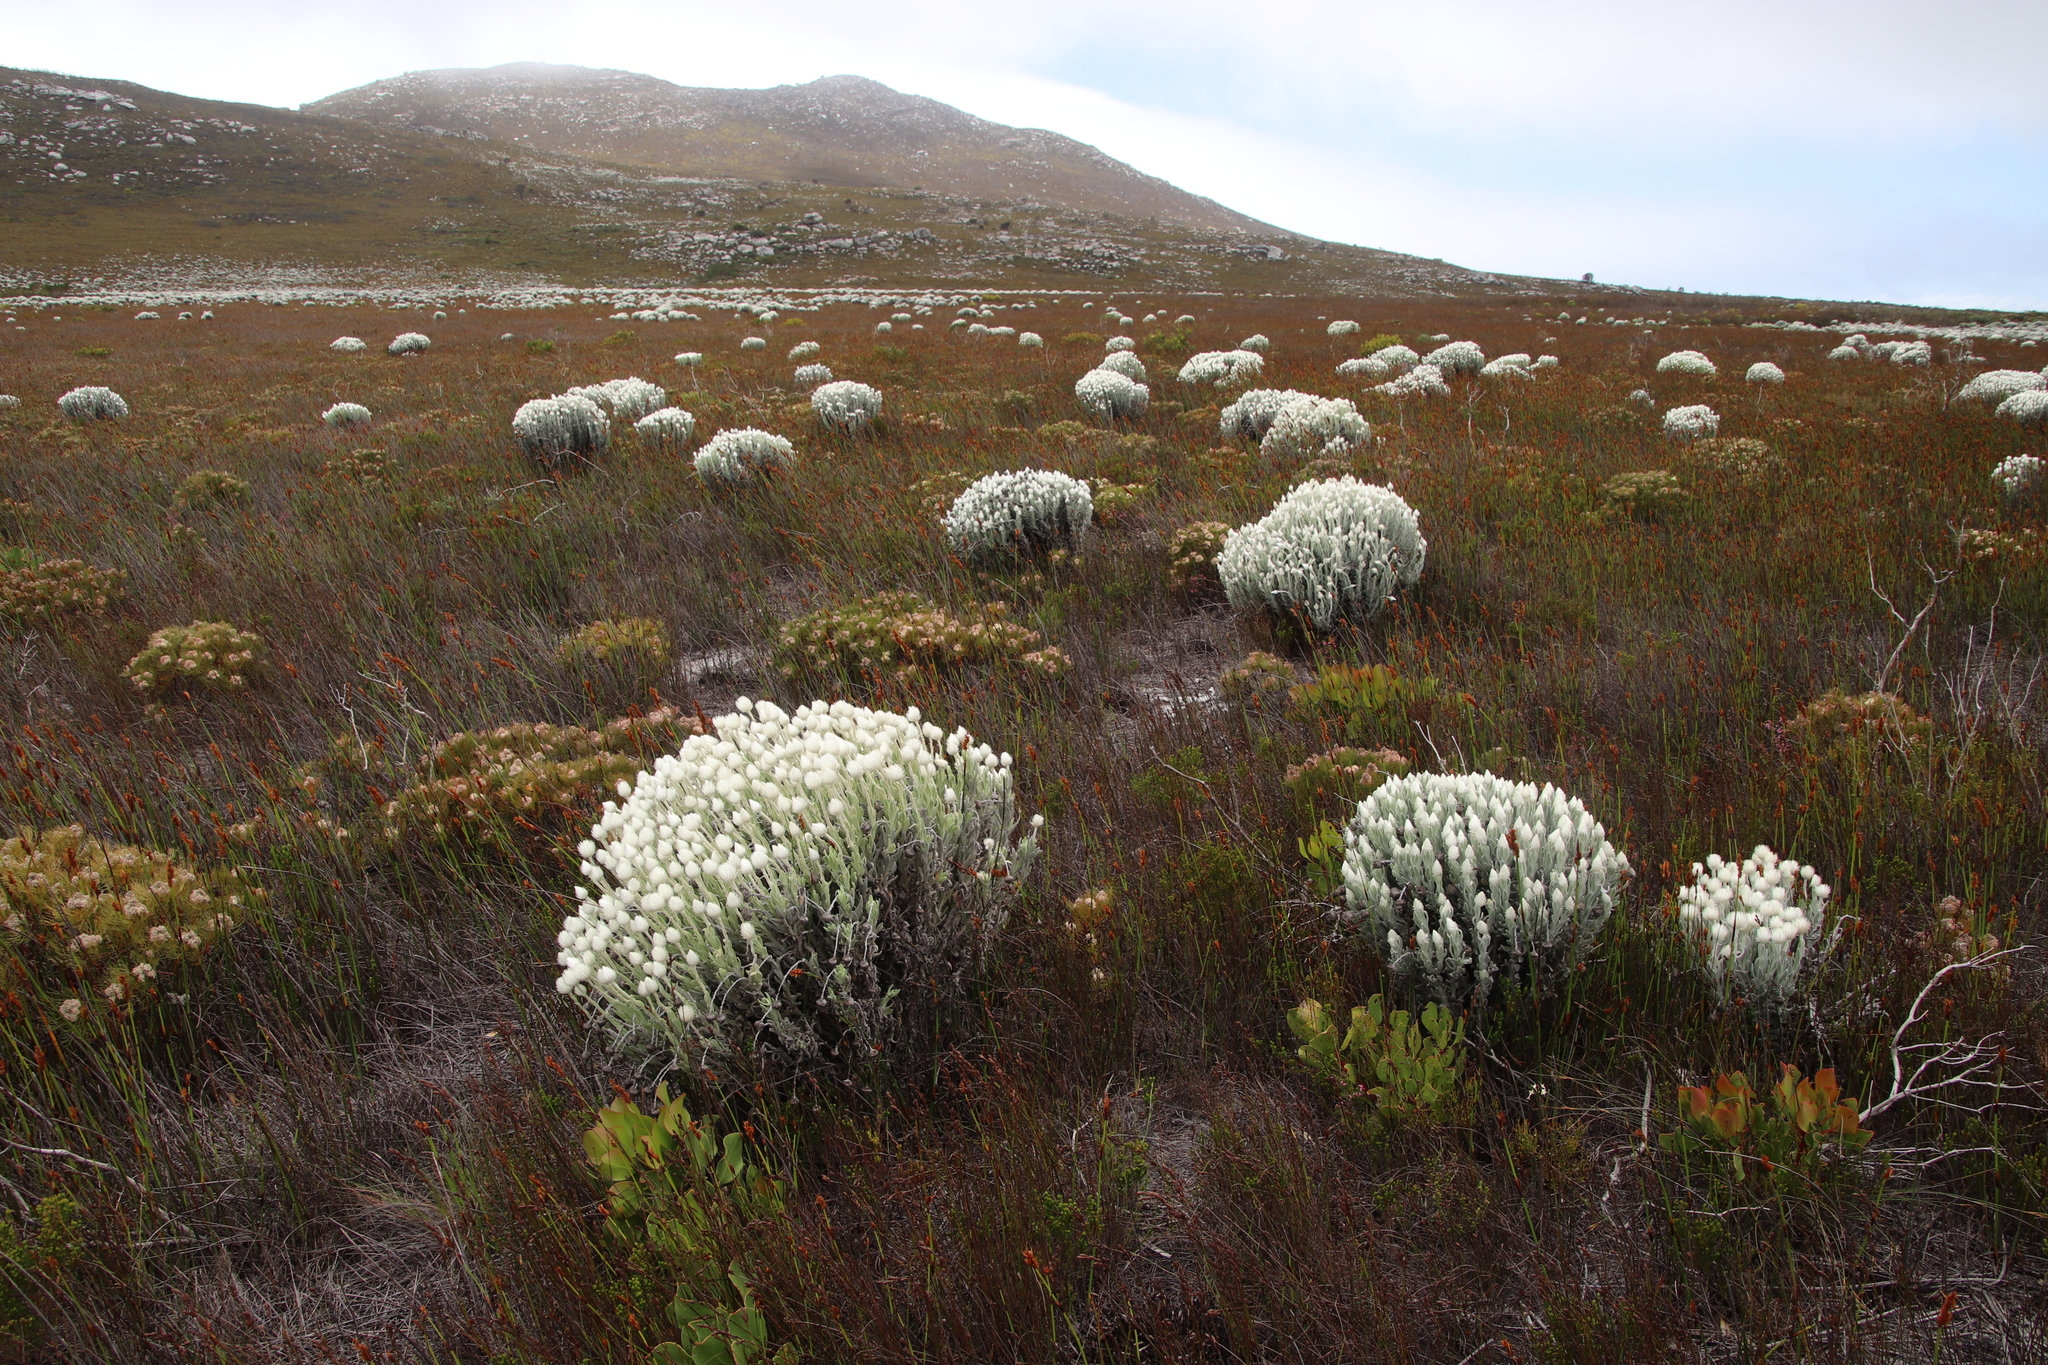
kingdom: Plantae
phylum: Tracheophyta
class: Magnoliopsida
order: Asterales
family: Asteraceae
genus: Syncarpha
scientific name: Syncarpha vestita
